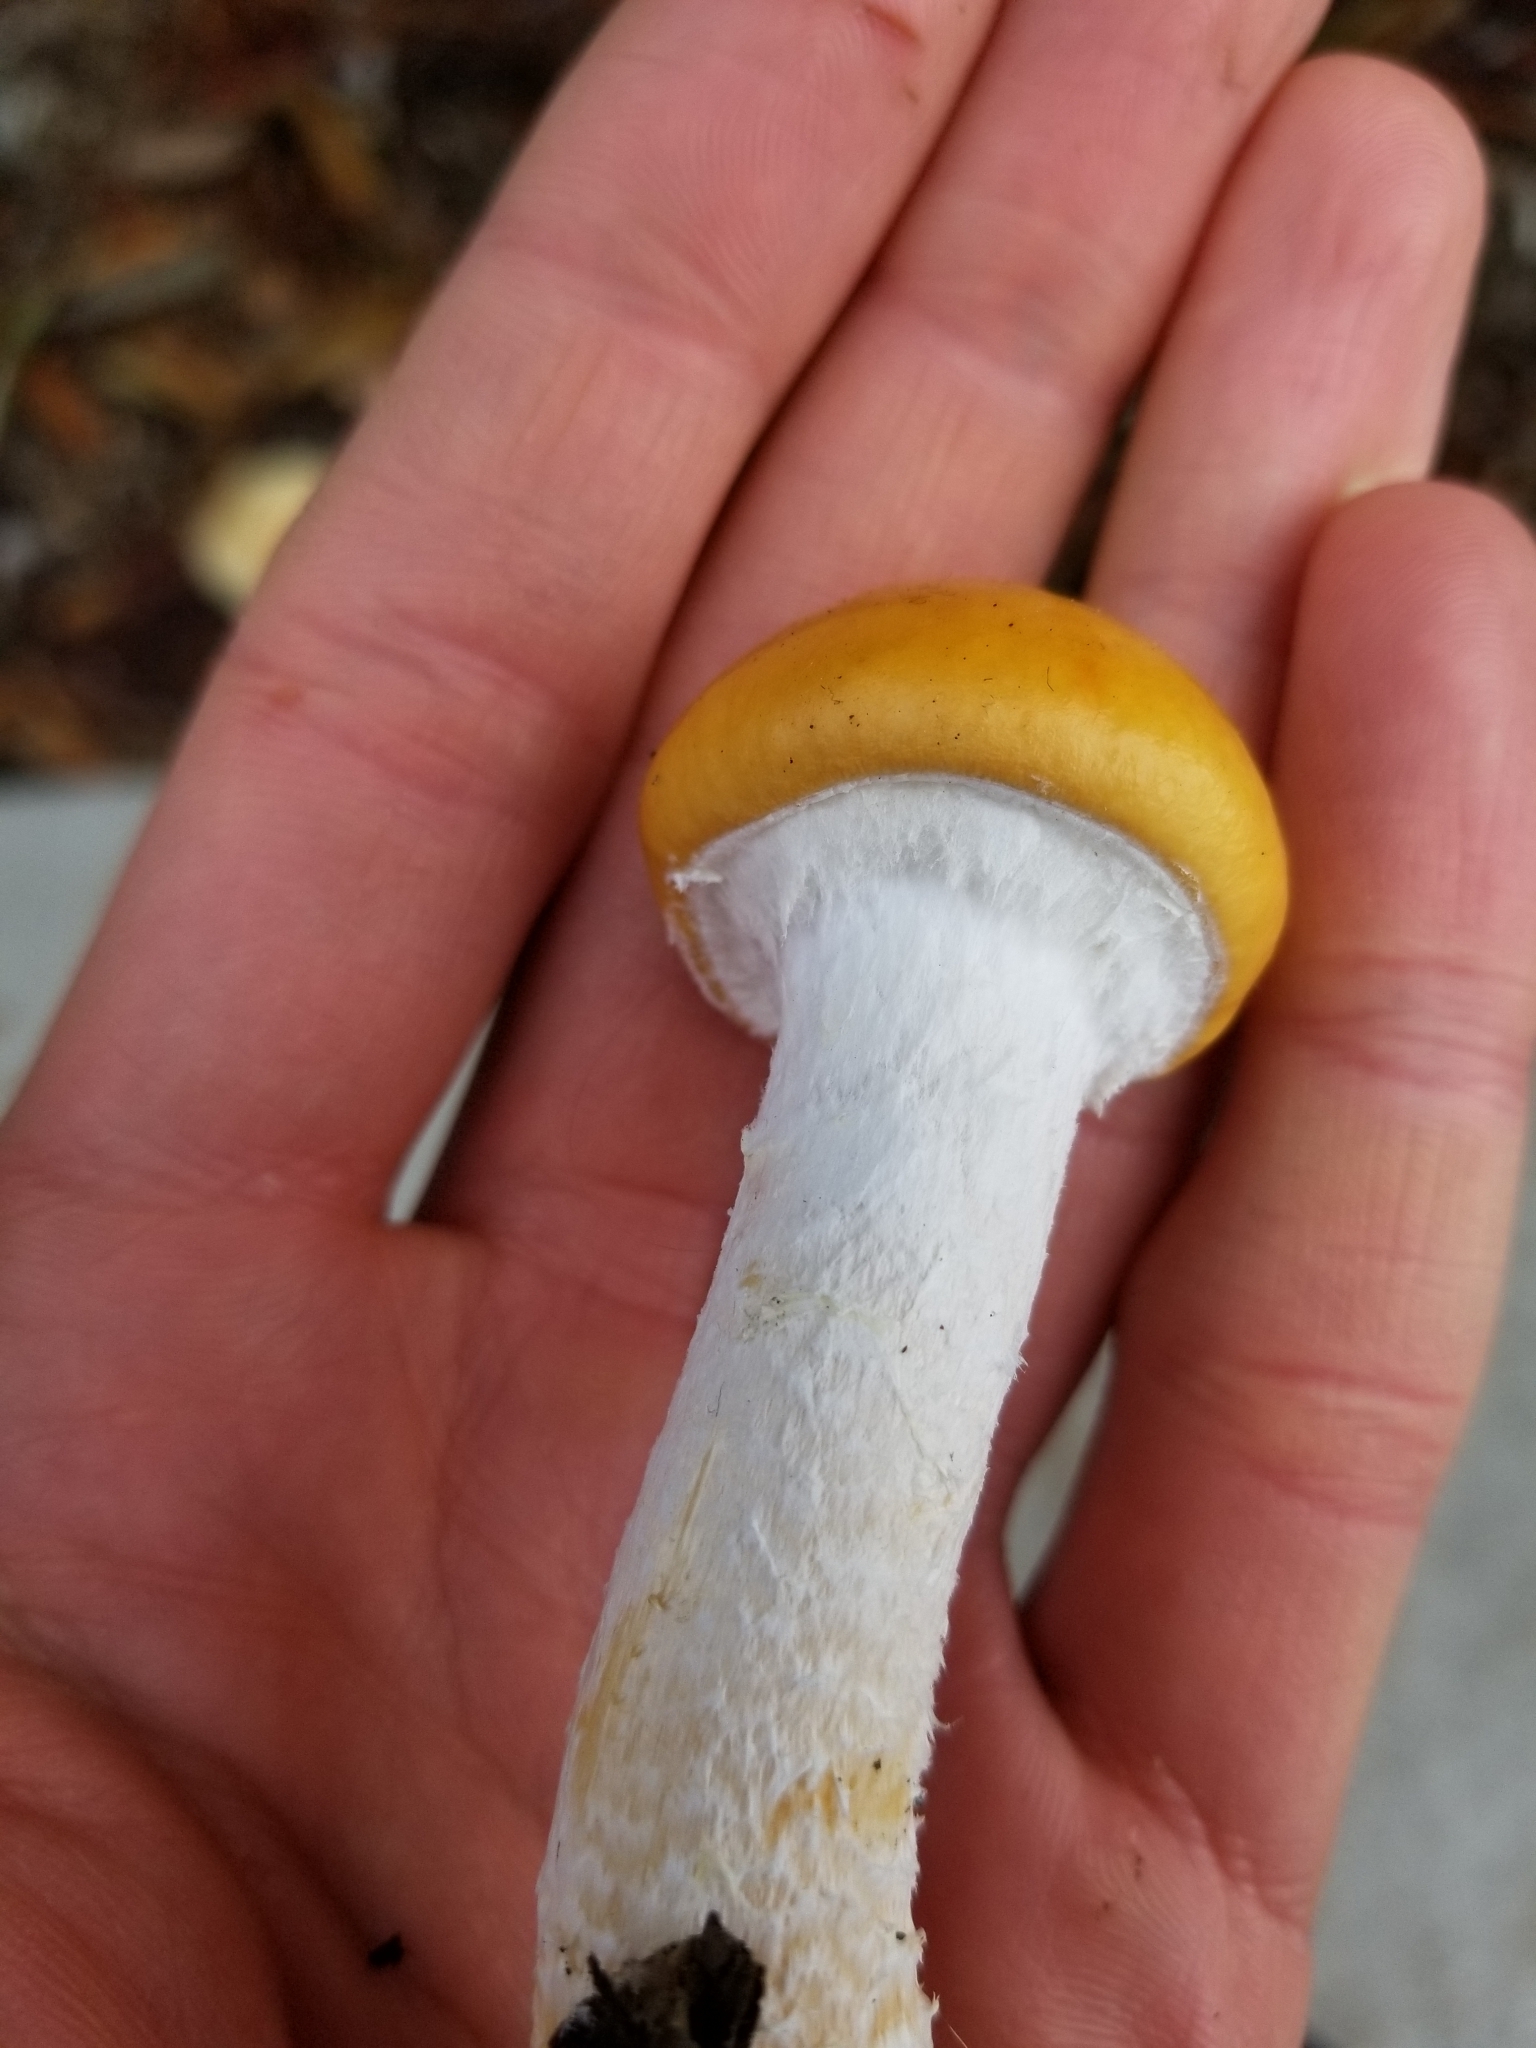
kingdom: Fungi
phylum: Basidiomycota
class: Agaricomycetes
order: Agaricales
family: Strophariaceae
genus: Stropharia
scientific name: Stropharia ambigua
